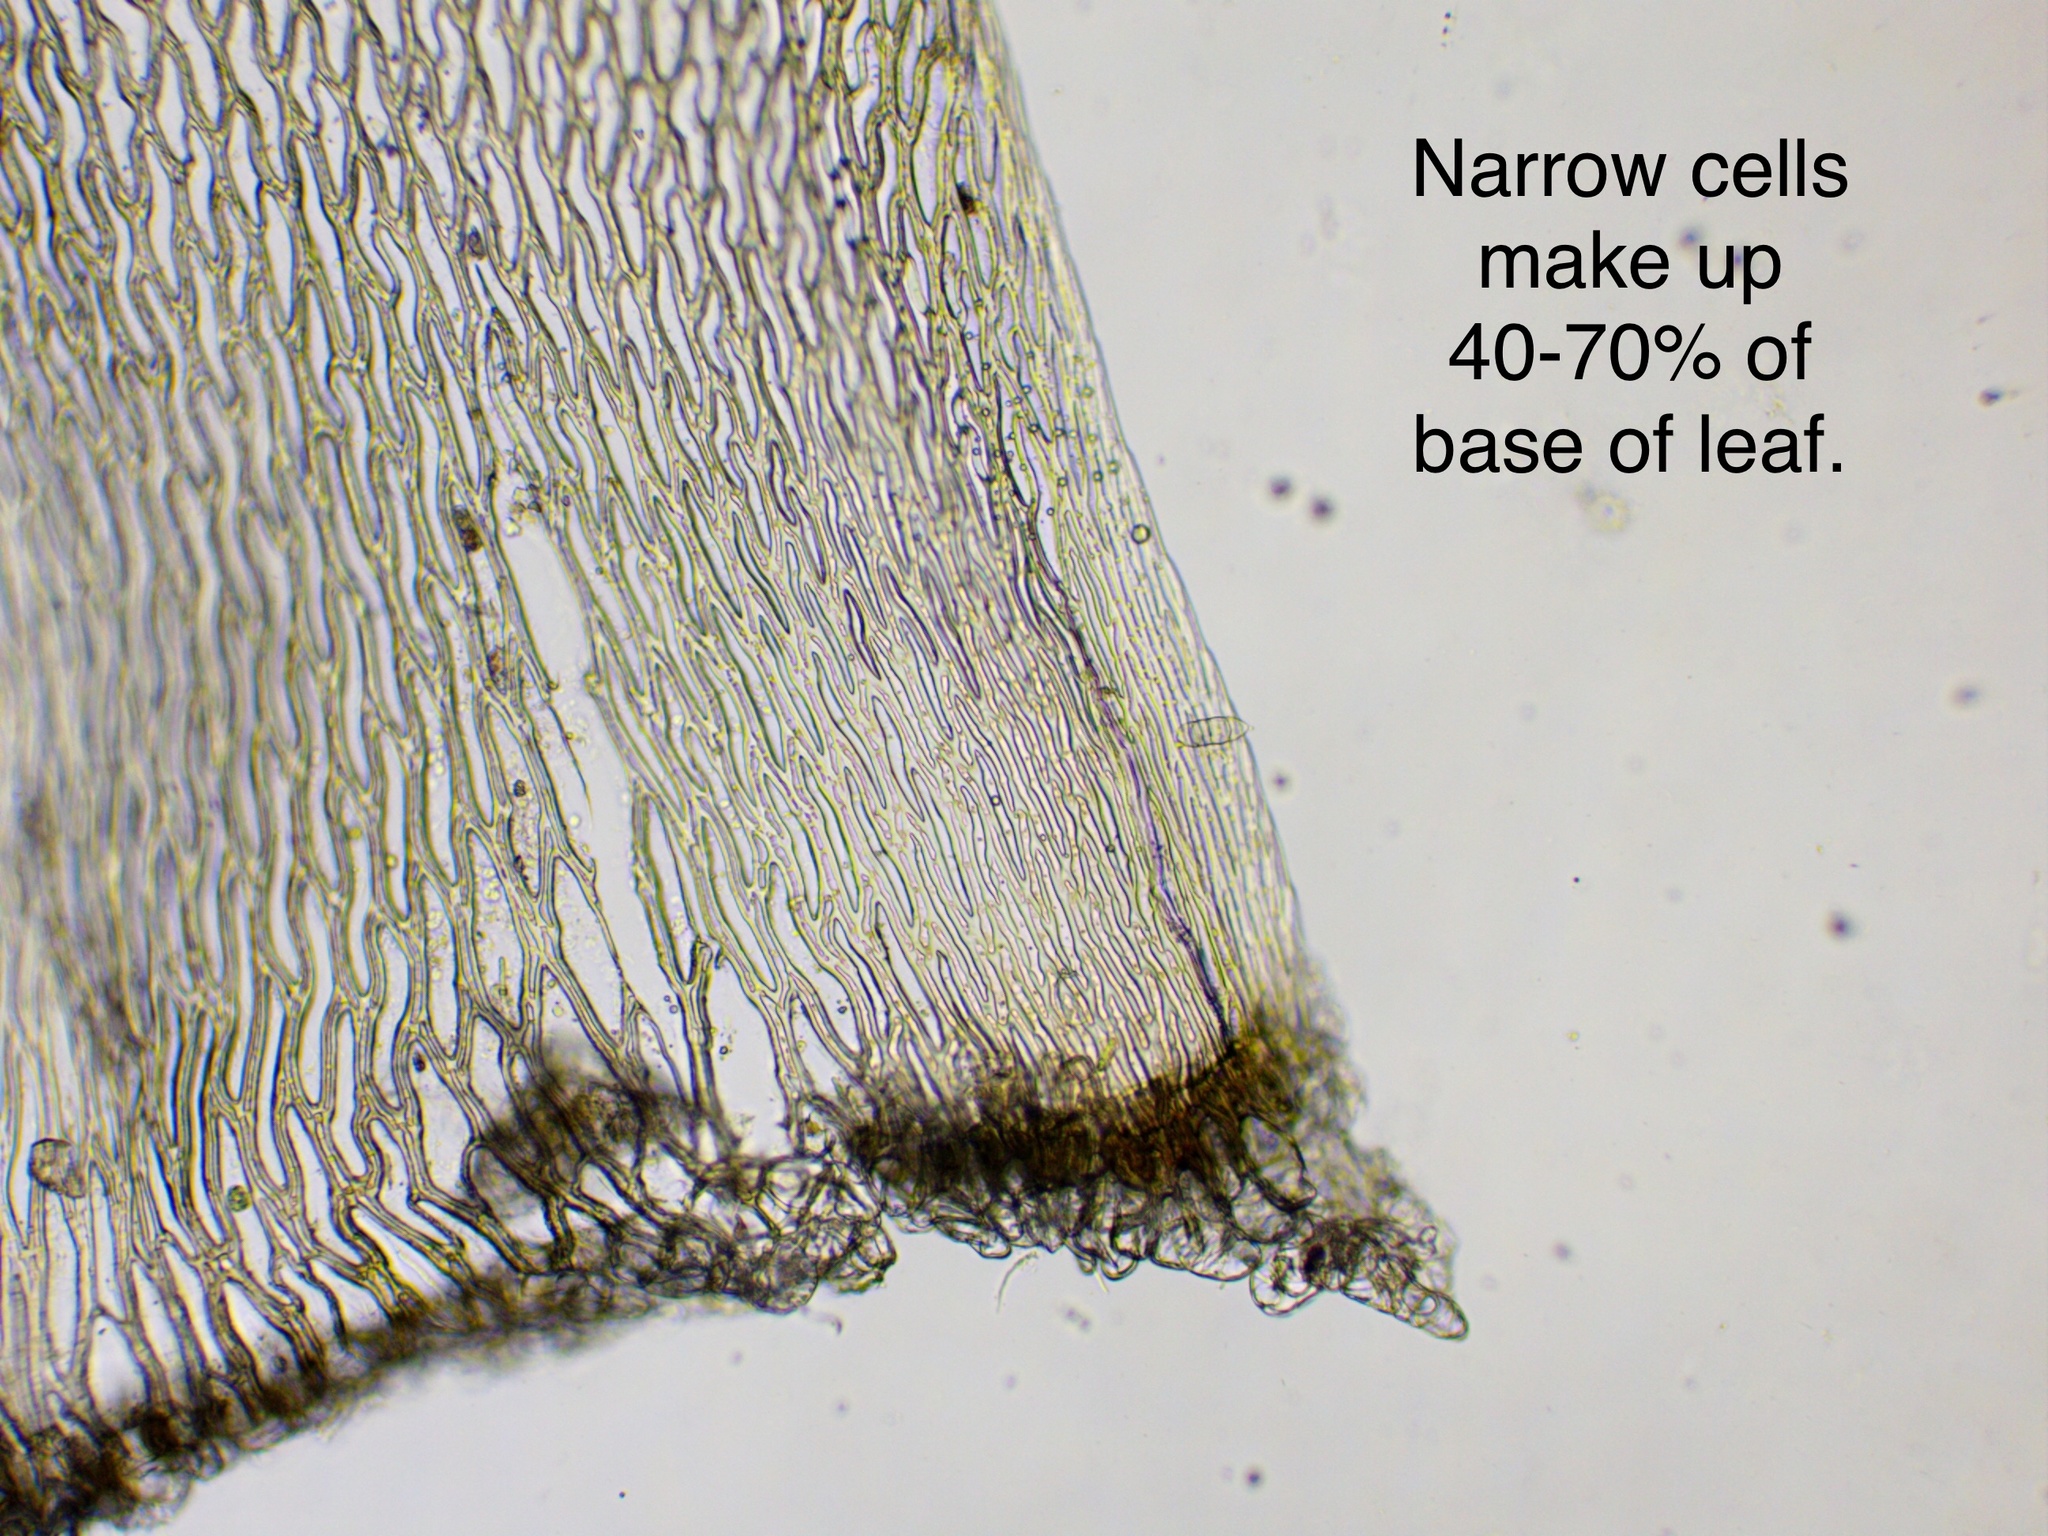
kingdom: Plantae
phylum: Bryophyta
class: Sphagnopsida
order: Sphagnales
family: Sphagnaceae
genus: Sphagnum
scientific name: Sphagnum girgensohnii
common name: Girgensohn's peat moss
